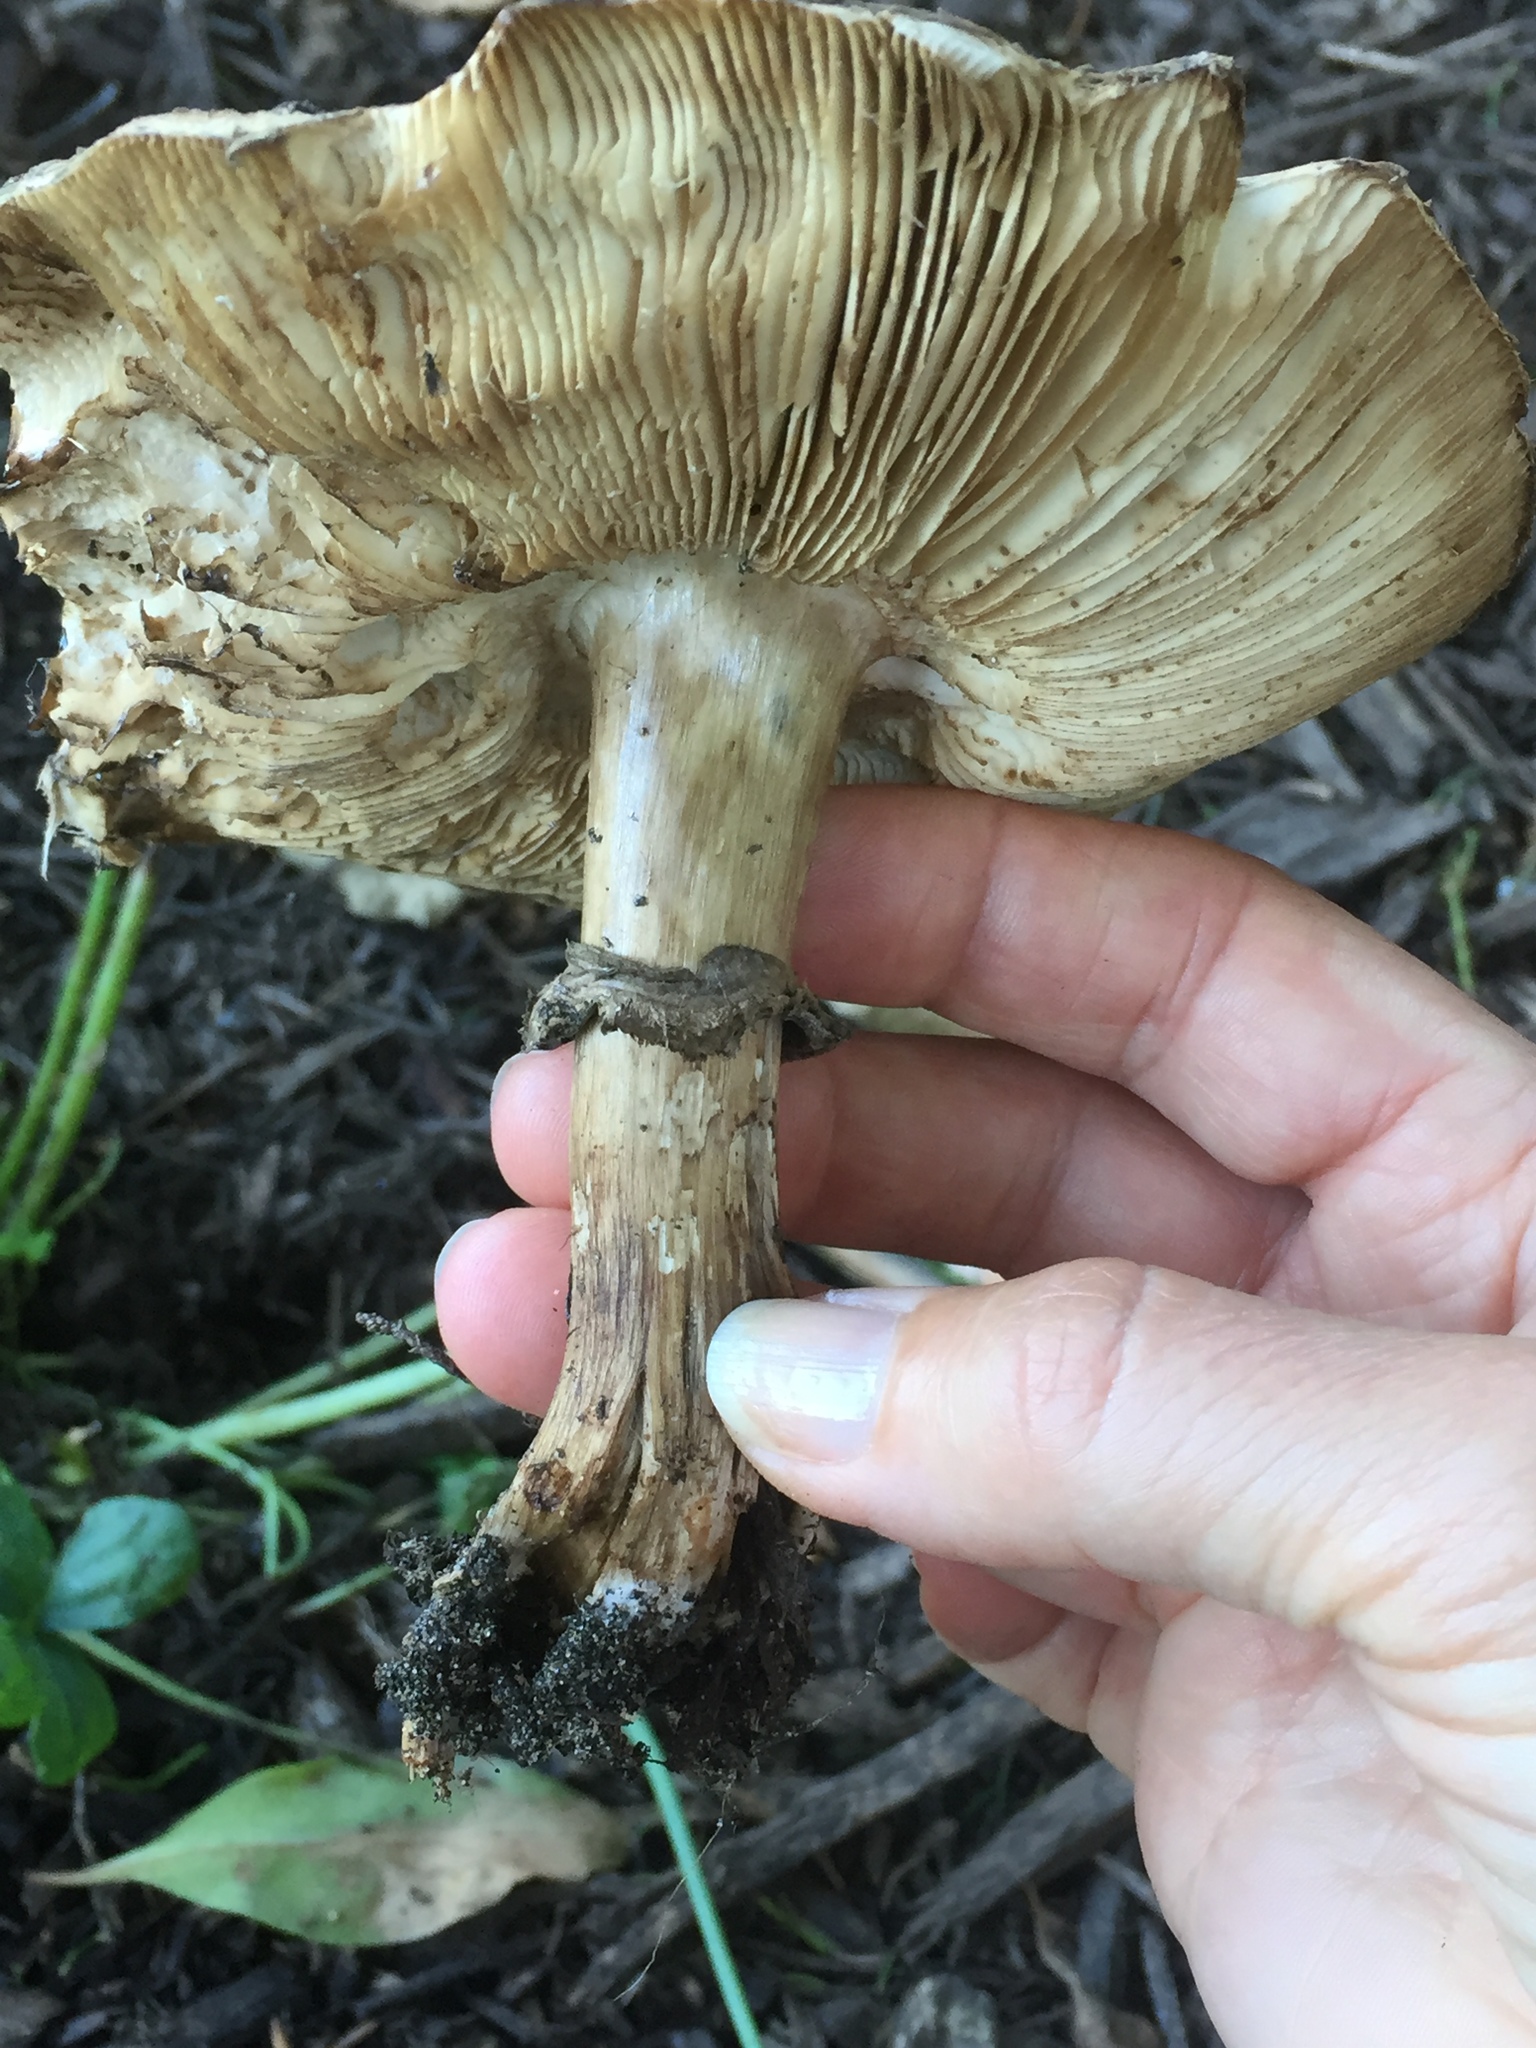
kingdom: Fungi
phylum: Basidiomycota
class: Agaricomycetes
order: Agaricales
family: Agaricaceae
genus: Chlorophyllum
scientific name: Chlorophyllum brunneum
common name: Brown parasol
